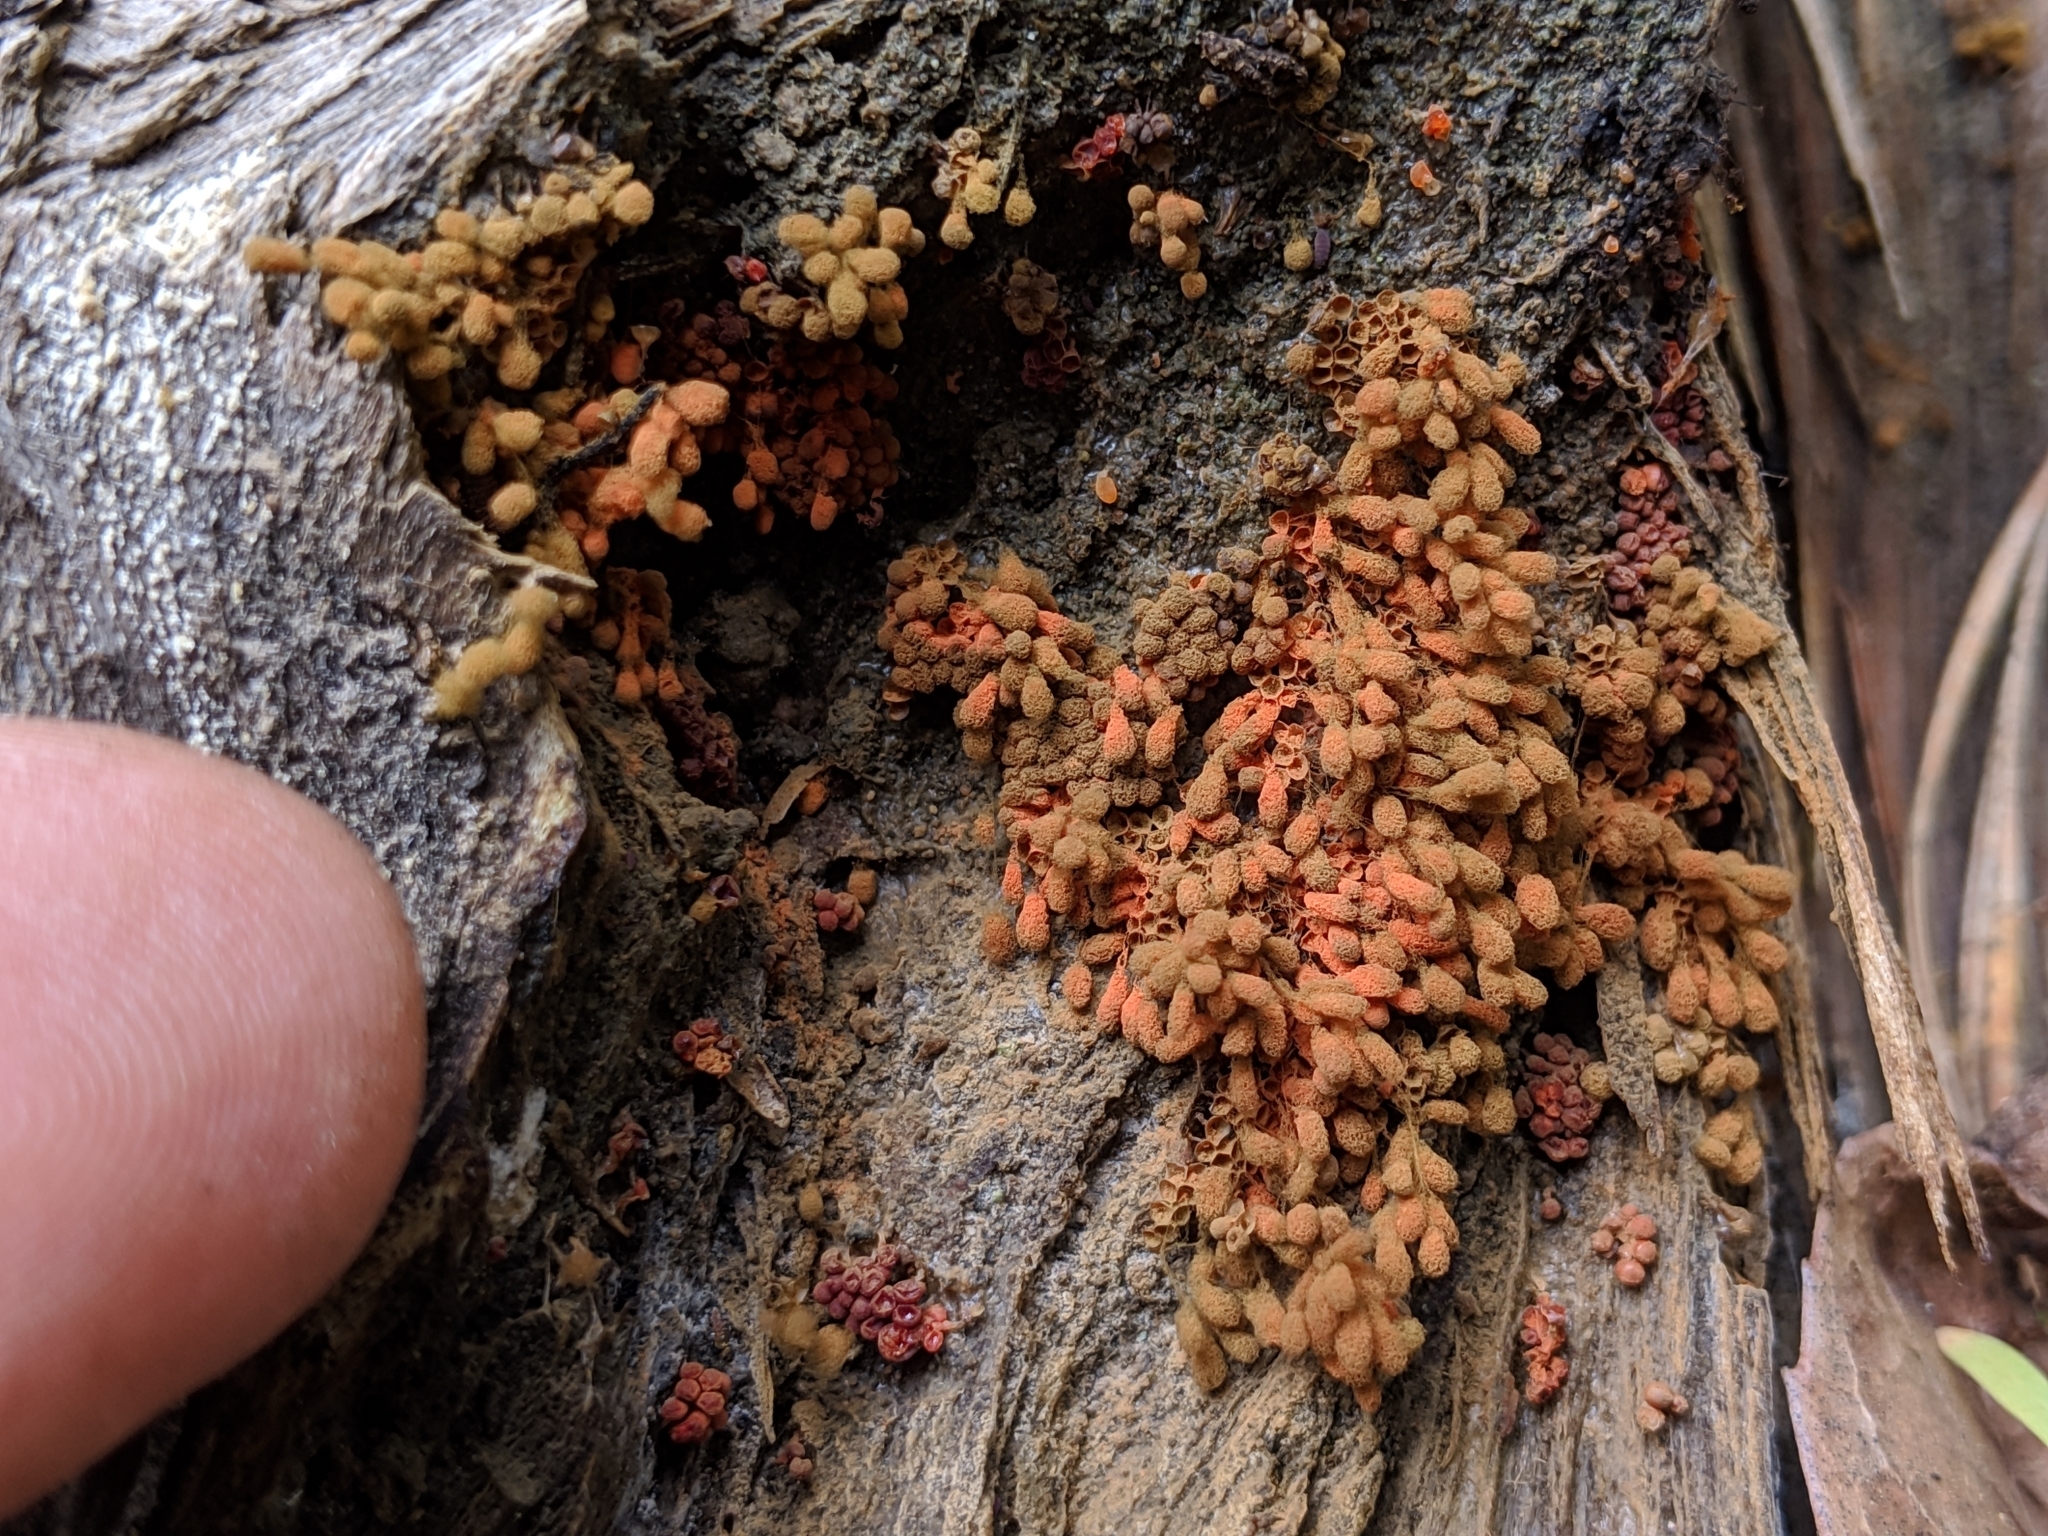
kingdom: Protozoa
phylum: Mycetozoa
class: Myxomycetes
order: Trichiales
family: Arcyriaceae
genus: Arcyria
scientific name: Arcyria ferruginea
